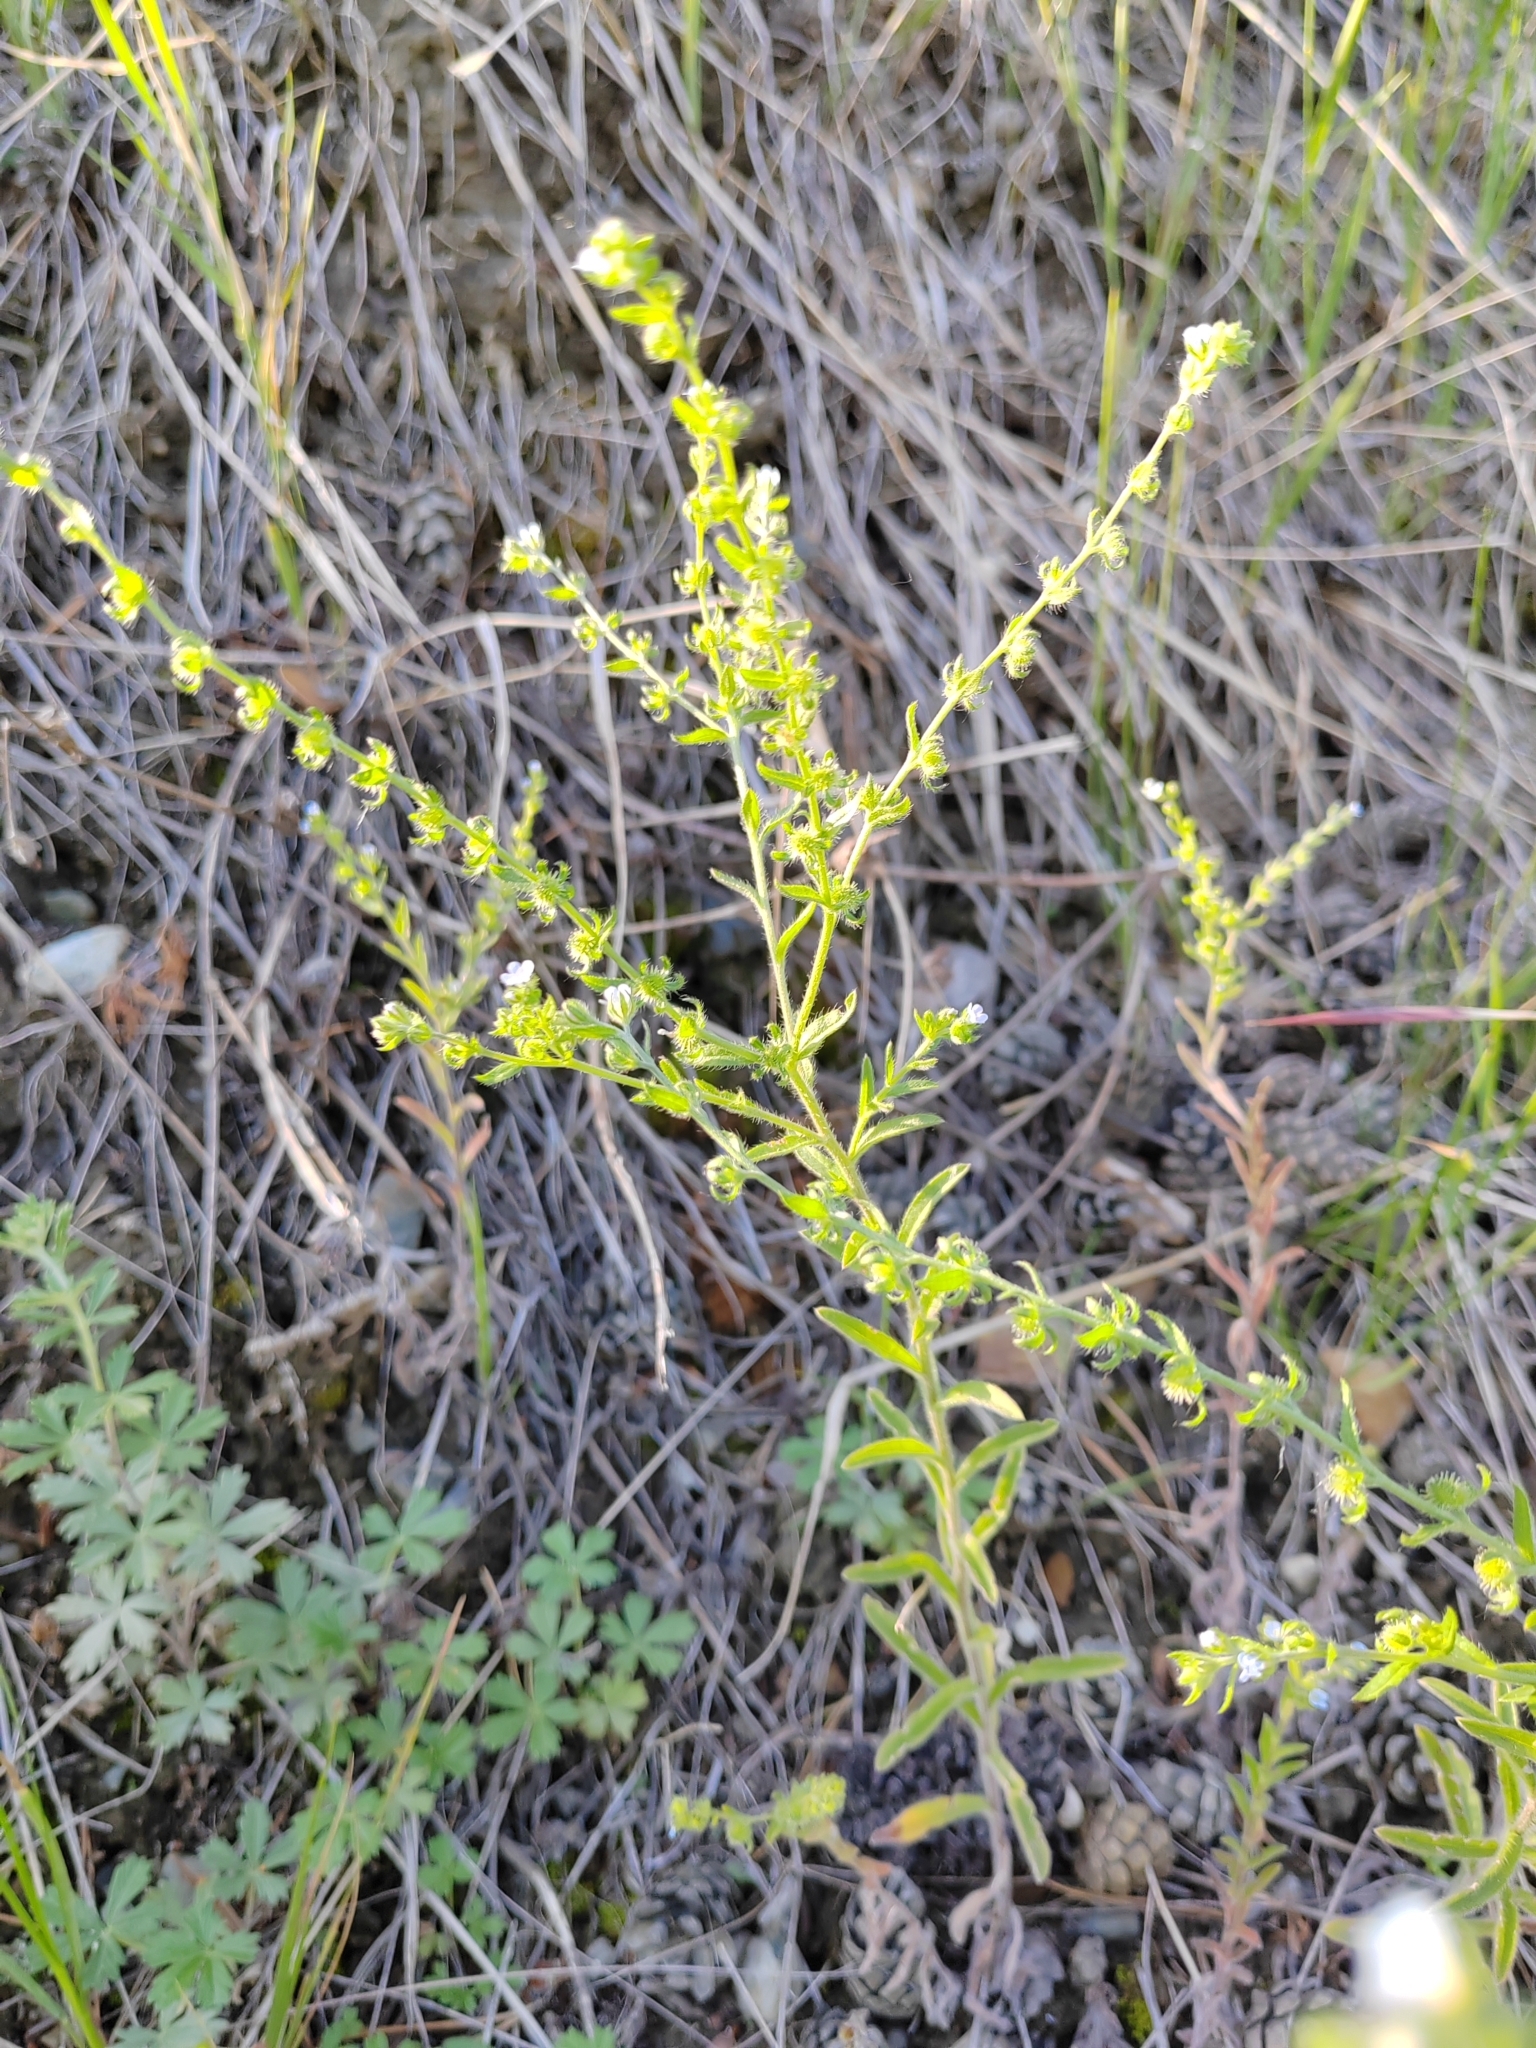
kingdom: Plantae
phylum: Tracheophyta
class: Magnoliopsida
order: Boraginales
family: Boraginaceae
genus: Hackelia
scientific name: Hackelia deflexa
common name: Nodding stickseed
